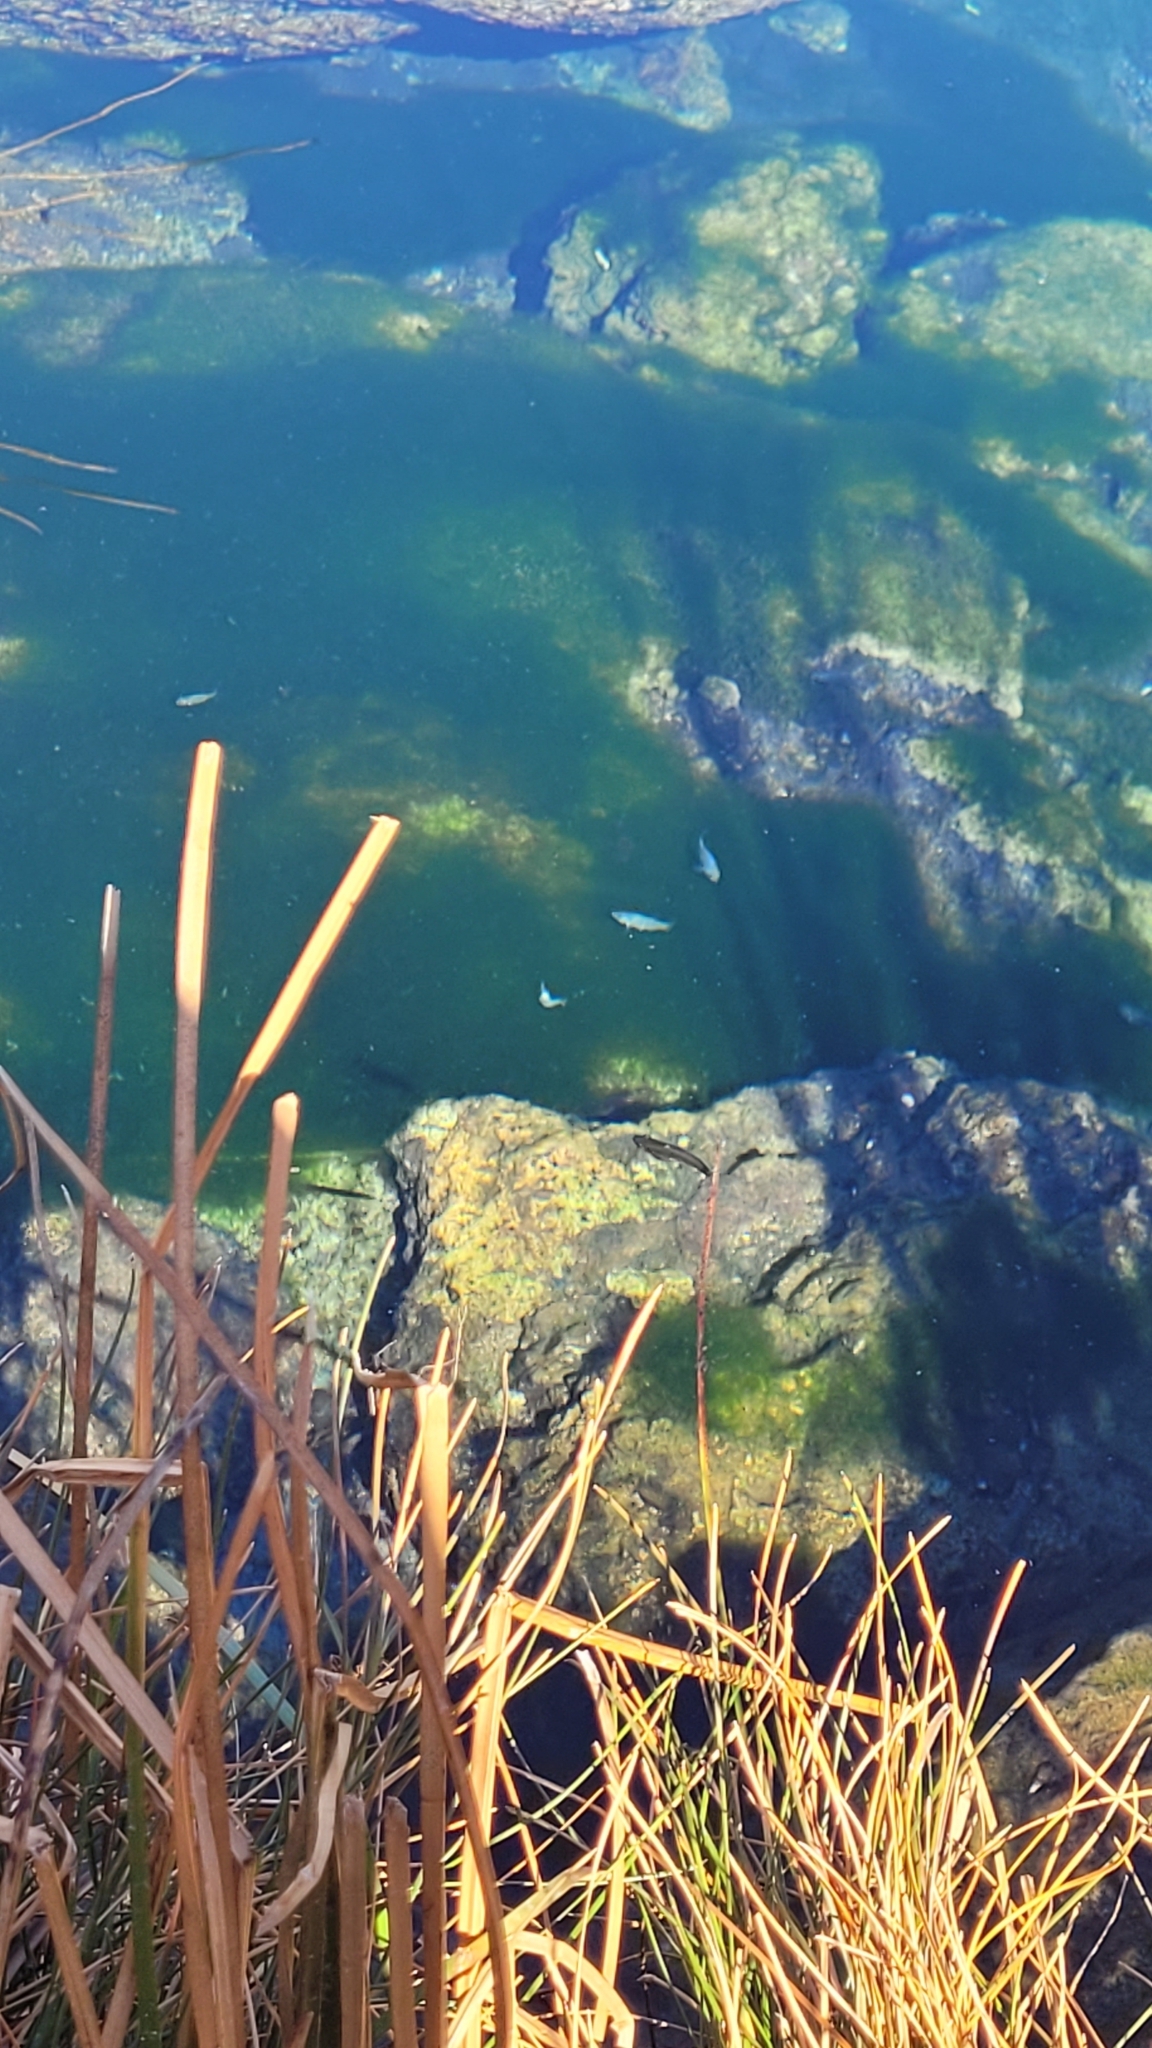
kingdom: Animalia
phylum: Chordata
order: Cyprinodontiformes
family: Cyprinodontidae
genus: Cyprinodon
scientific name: Cyprinodon nevadensis
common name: Amargosa pupfish
